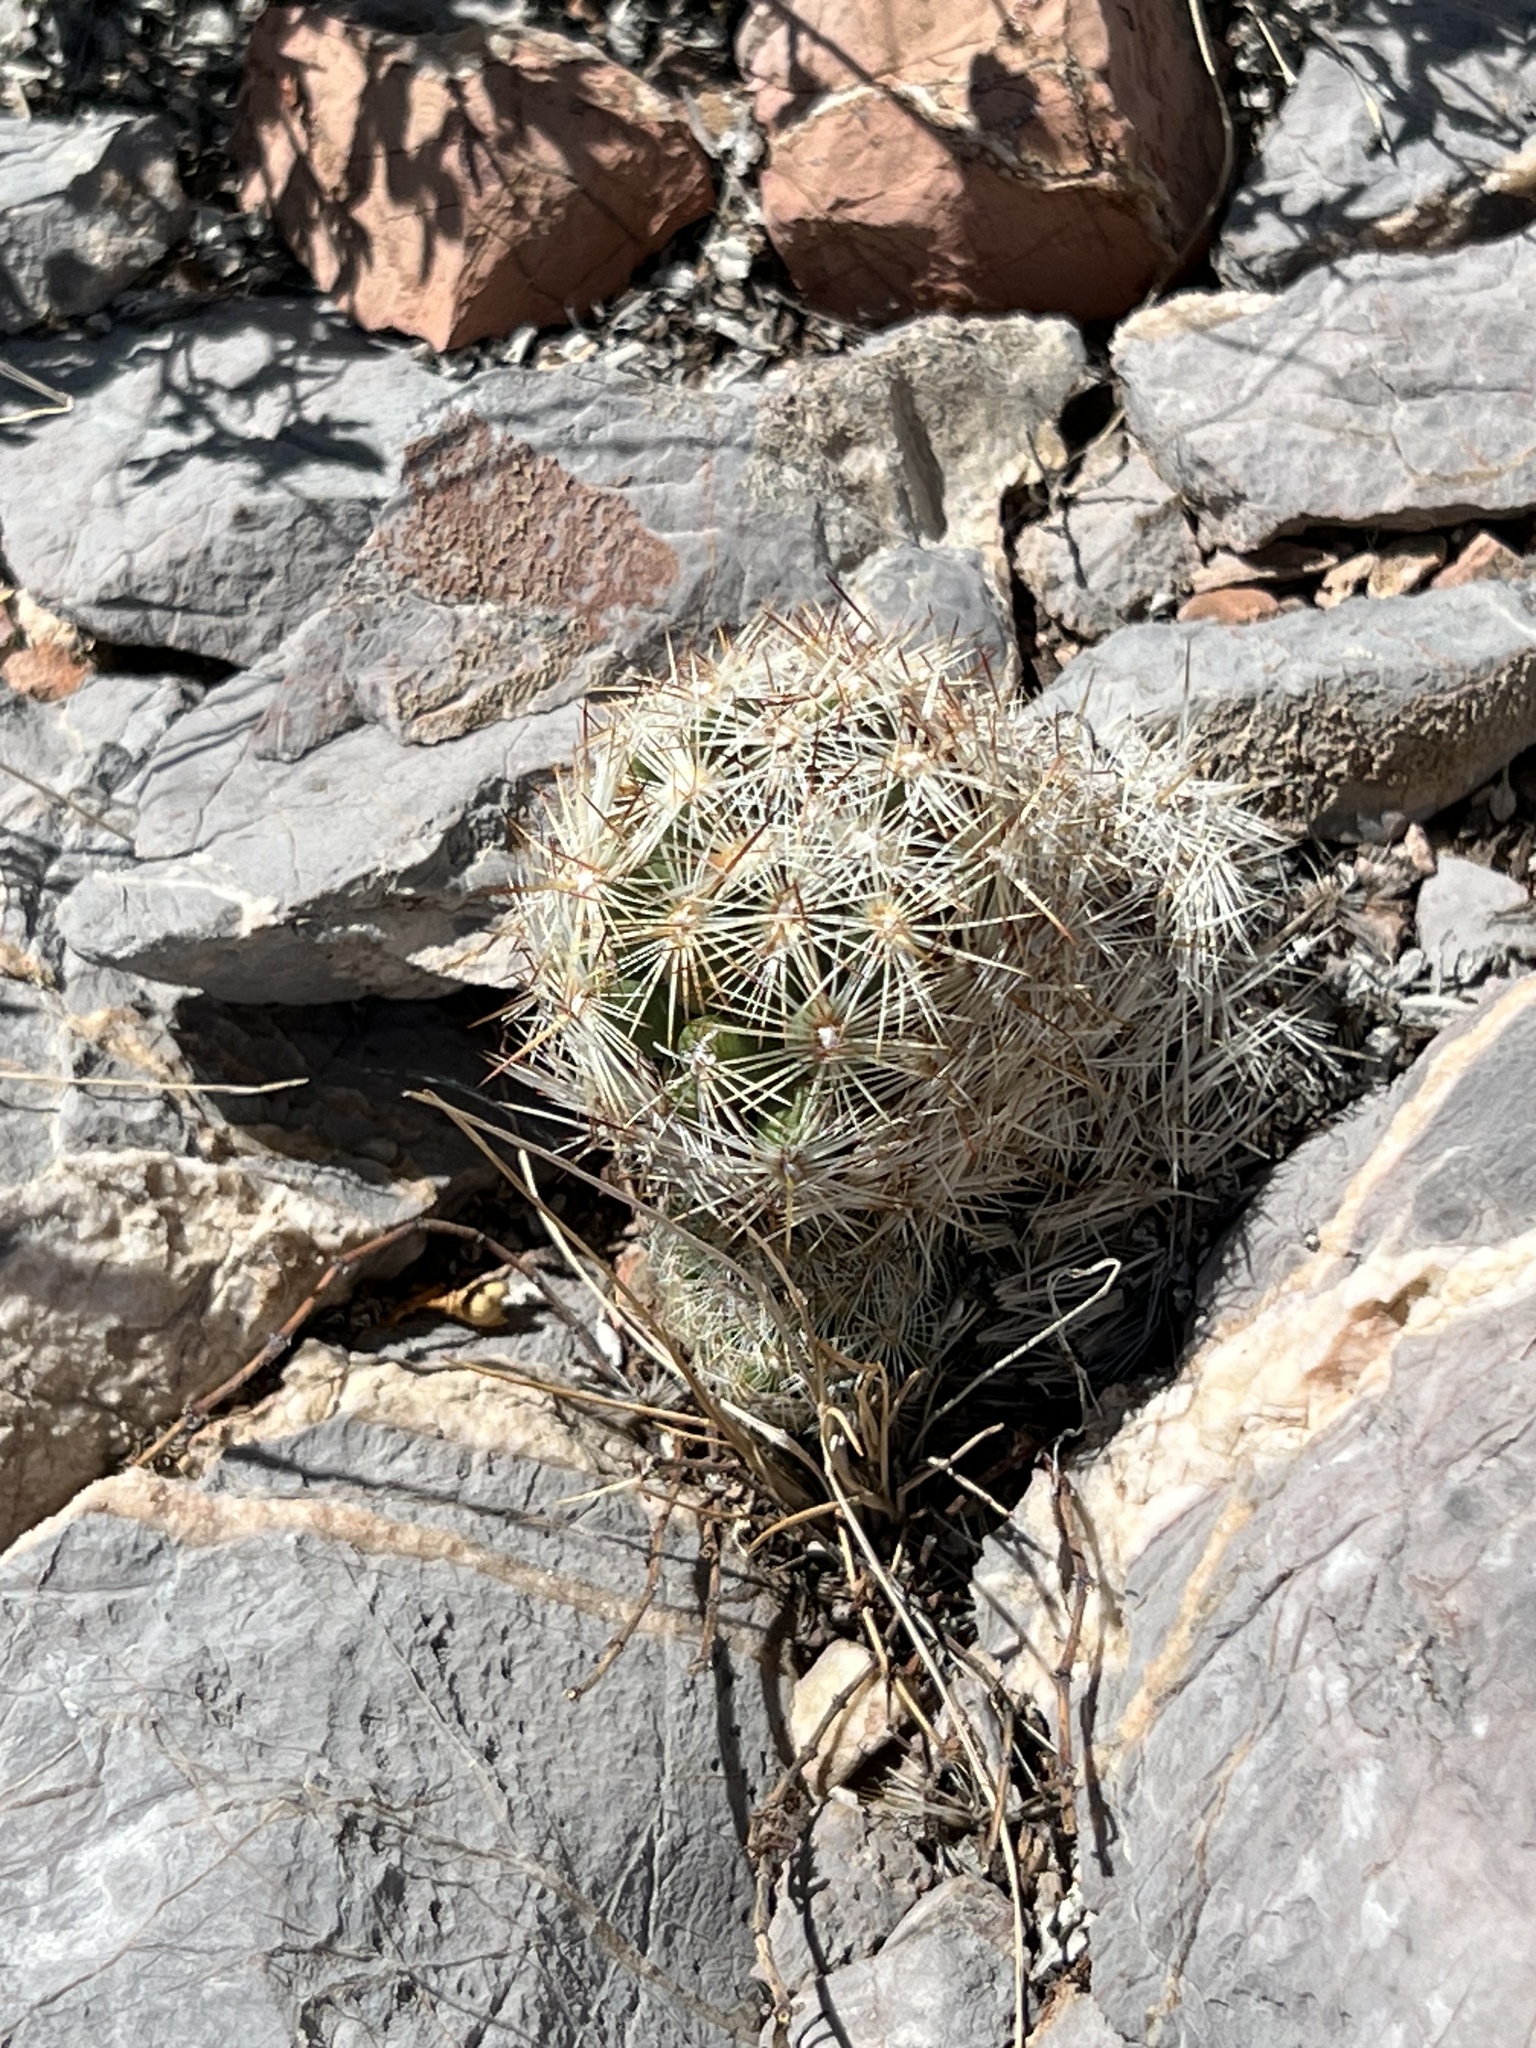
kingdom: Plantae
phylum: Tracheophyta
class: Magnoliopsida
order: Caryophyllales
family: Cactaceae
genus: Pelecyphora
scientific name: Pelecyphora vivipara
